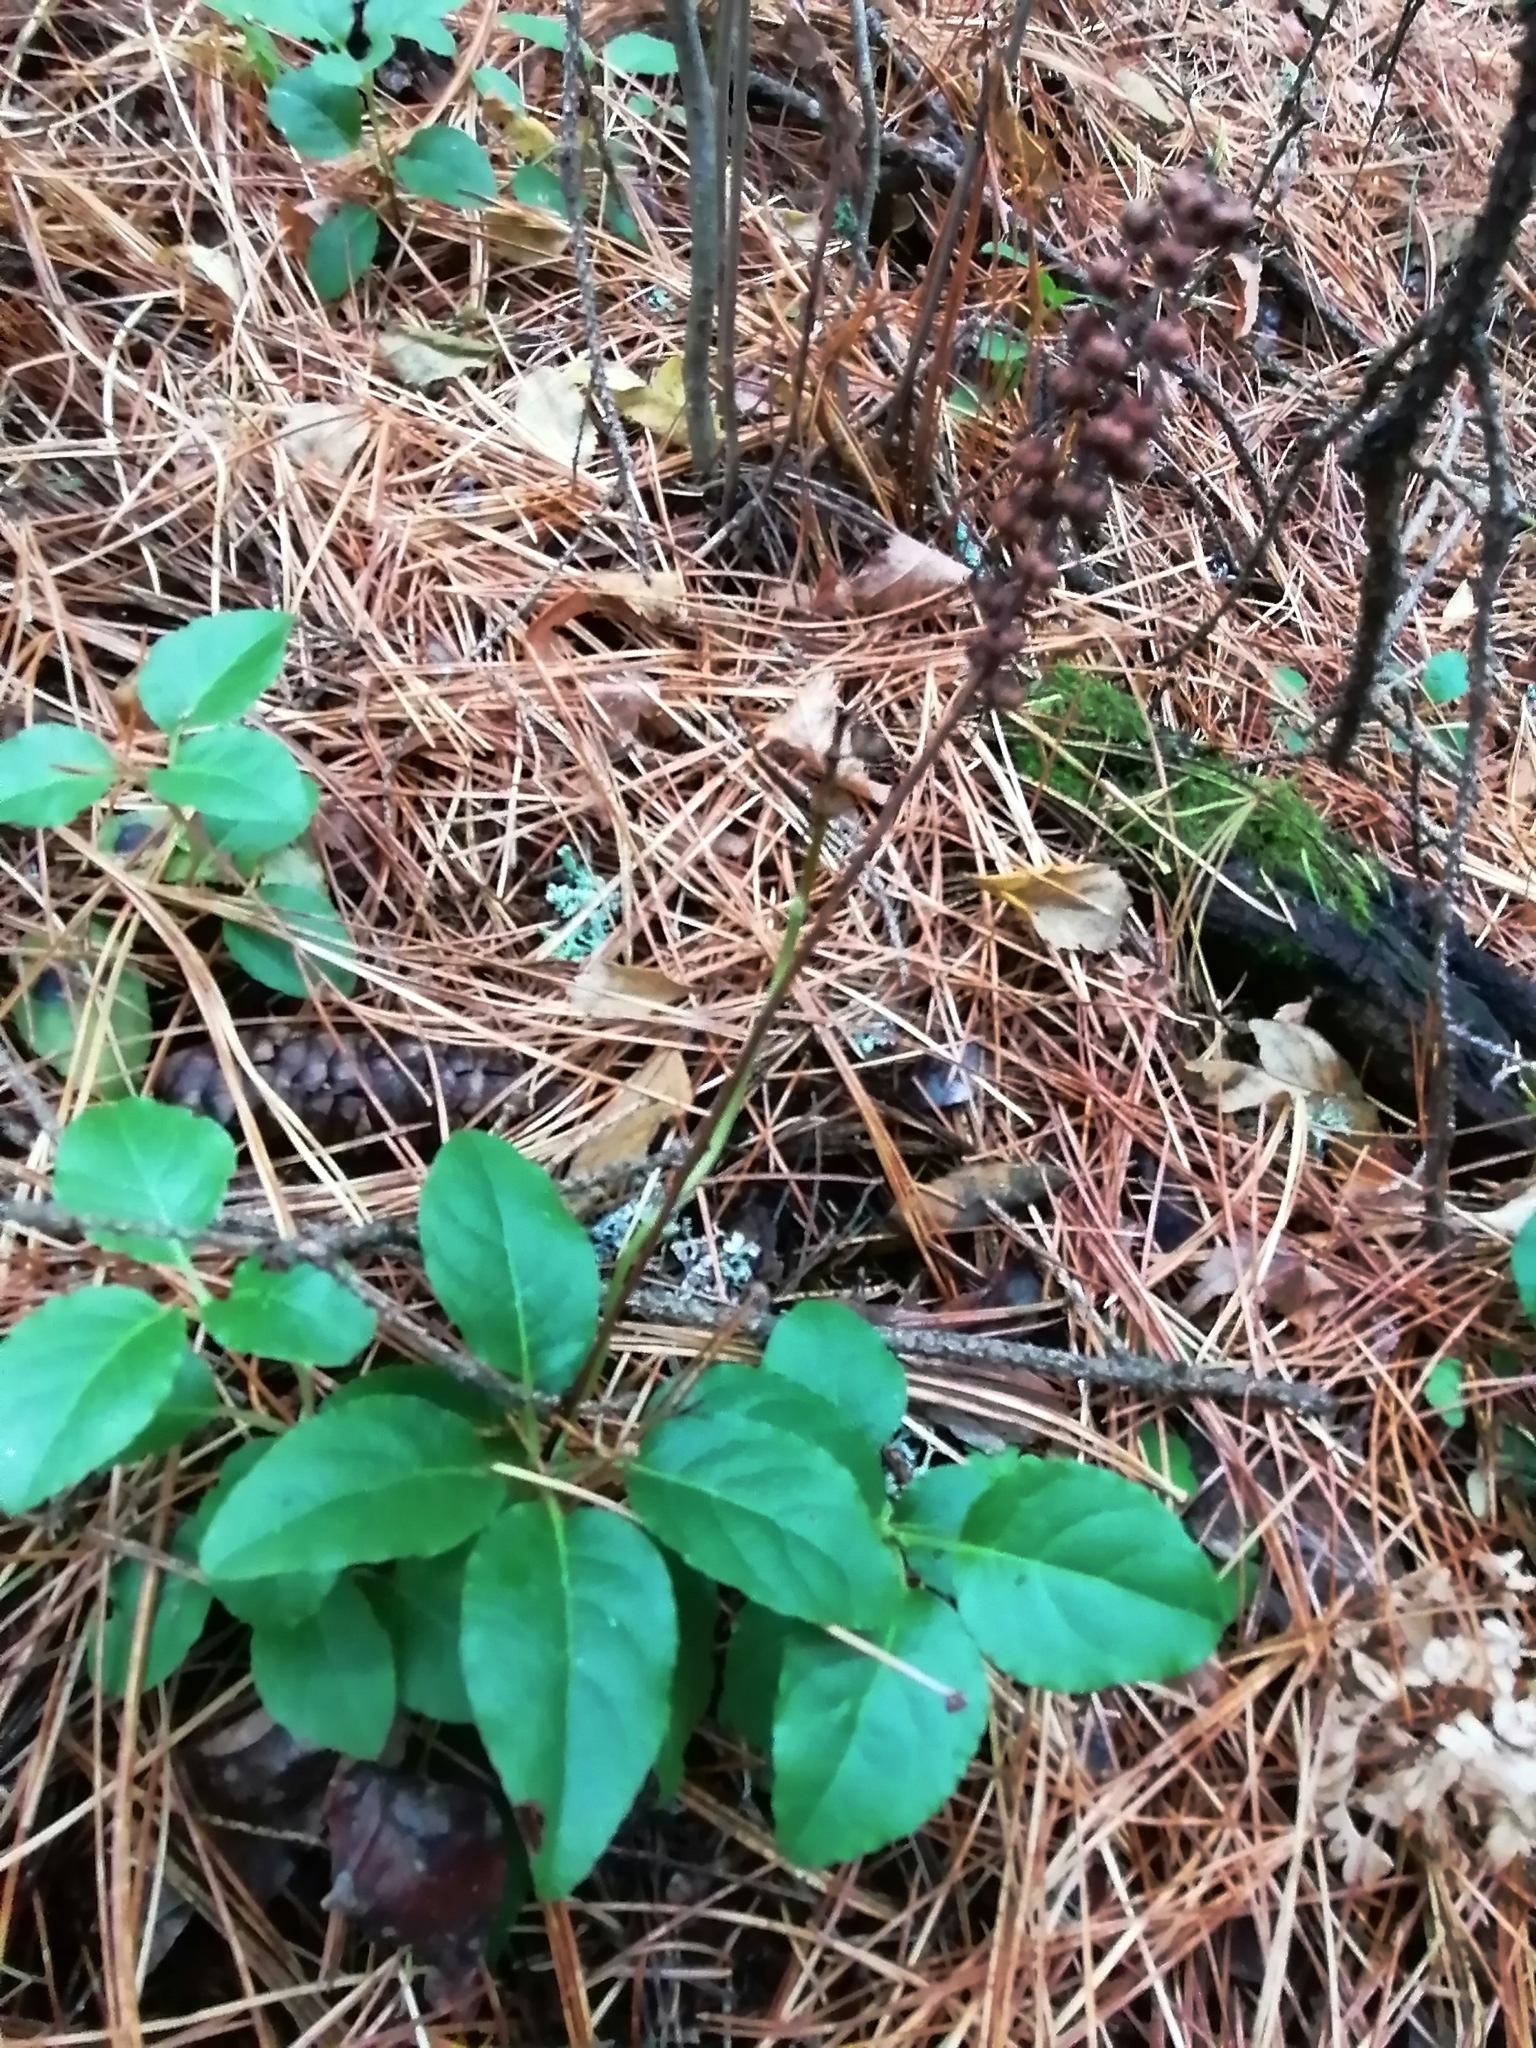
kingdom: Plantae
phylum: Tracheophyta
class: Magnoliopsida
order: Ericales
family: Ericaceae
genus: Orthilia
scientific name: Orthilia secunda
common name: One-sided orthilia
